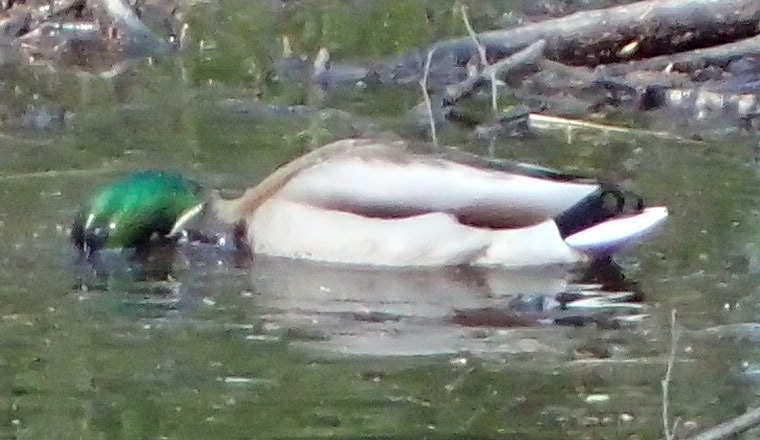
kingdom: Animalia
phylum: Chordata
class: Aves
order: Anseriformes
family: Anatidae
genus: Anas
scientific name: Anas platyrhynchos
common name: Mallard
